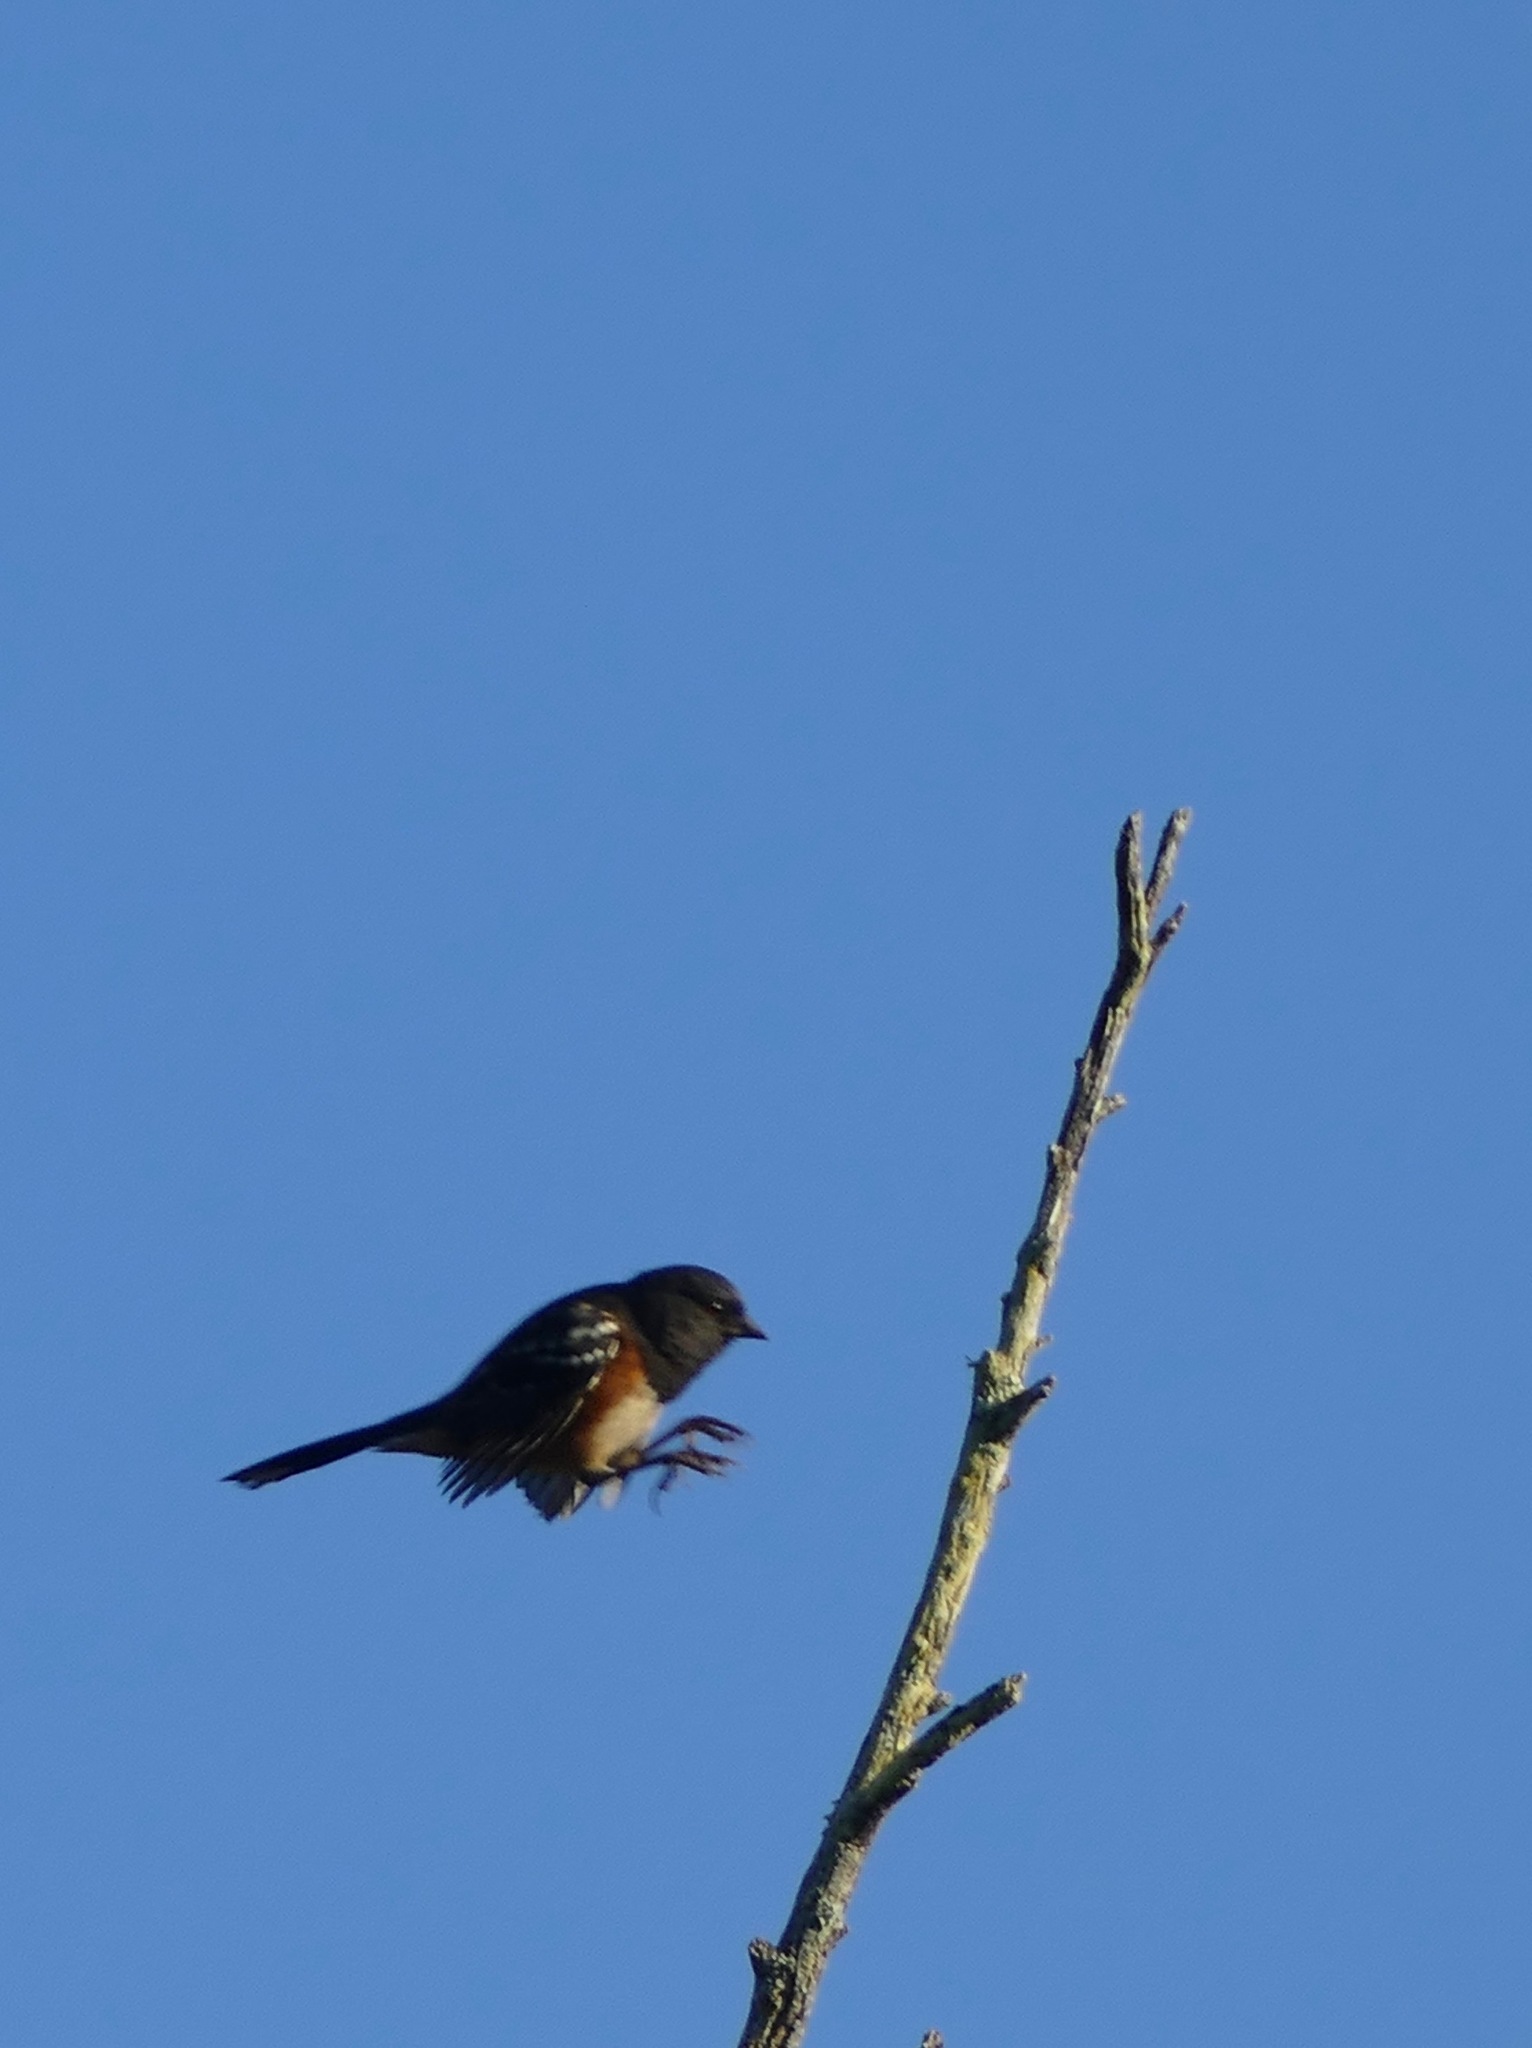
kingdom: Animalia
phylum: Chordata
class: Aves
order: Passeriformes
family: Passerellidae
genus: Pipilo
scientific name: Pipilo maculatus
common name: Spotted towhee
